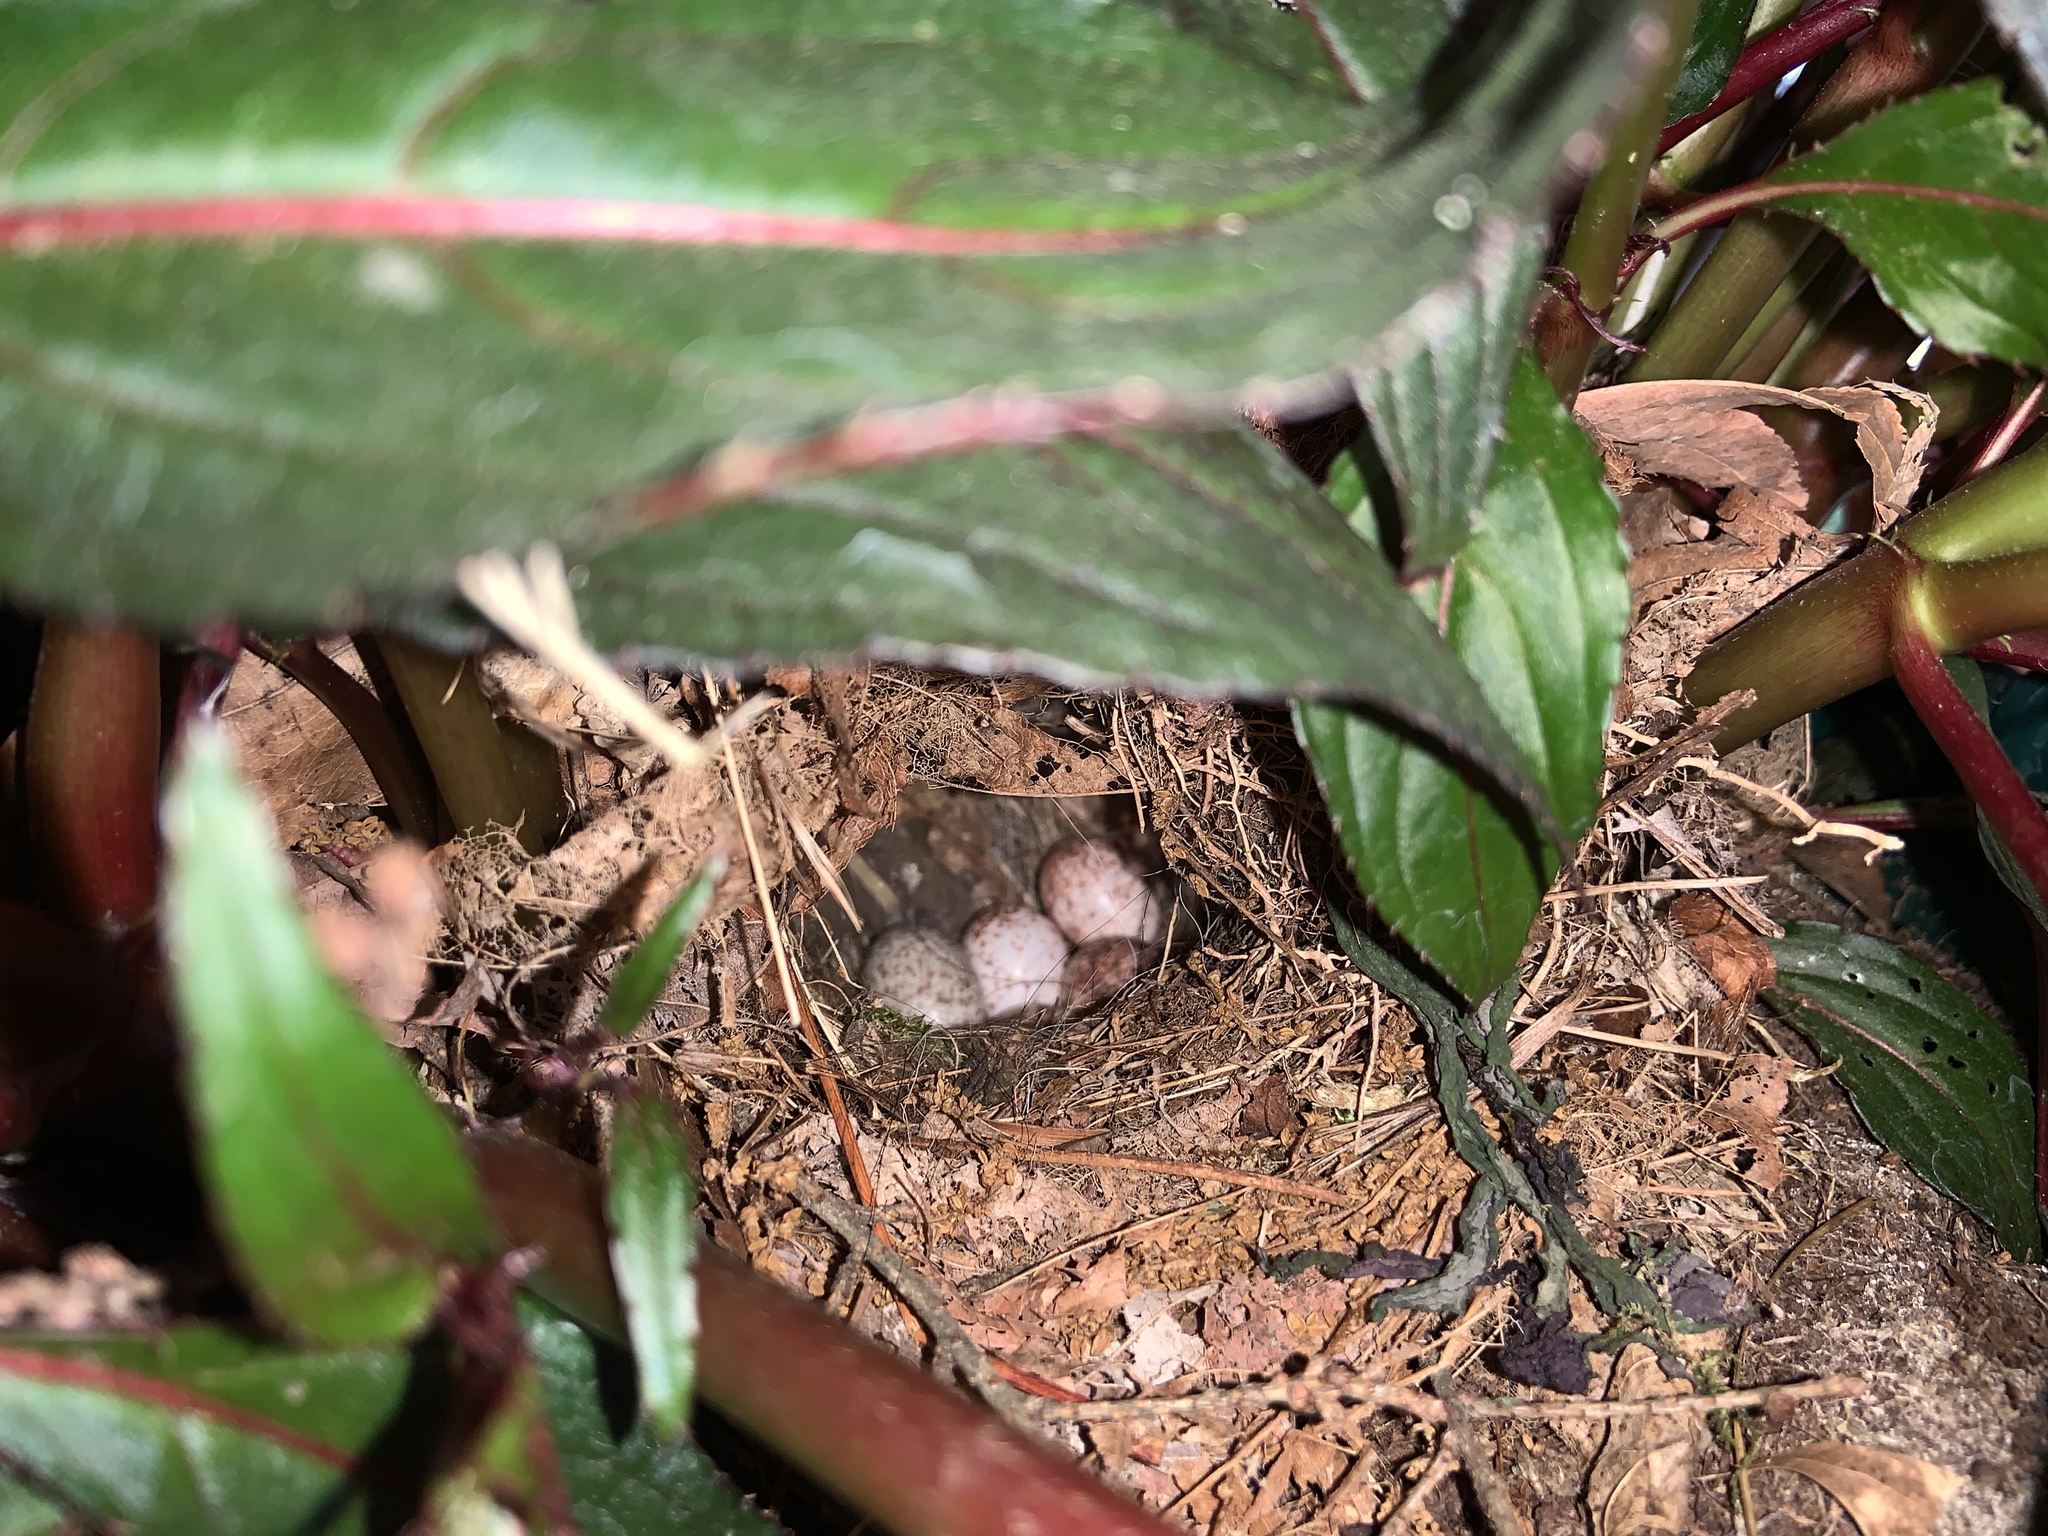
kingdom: Animalia
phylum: Chordata
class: Aves
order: Passeriformes
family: Troglodytidae
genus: Thryothorus
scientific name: Thryothorus ludovicianus
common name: Carolina wren
